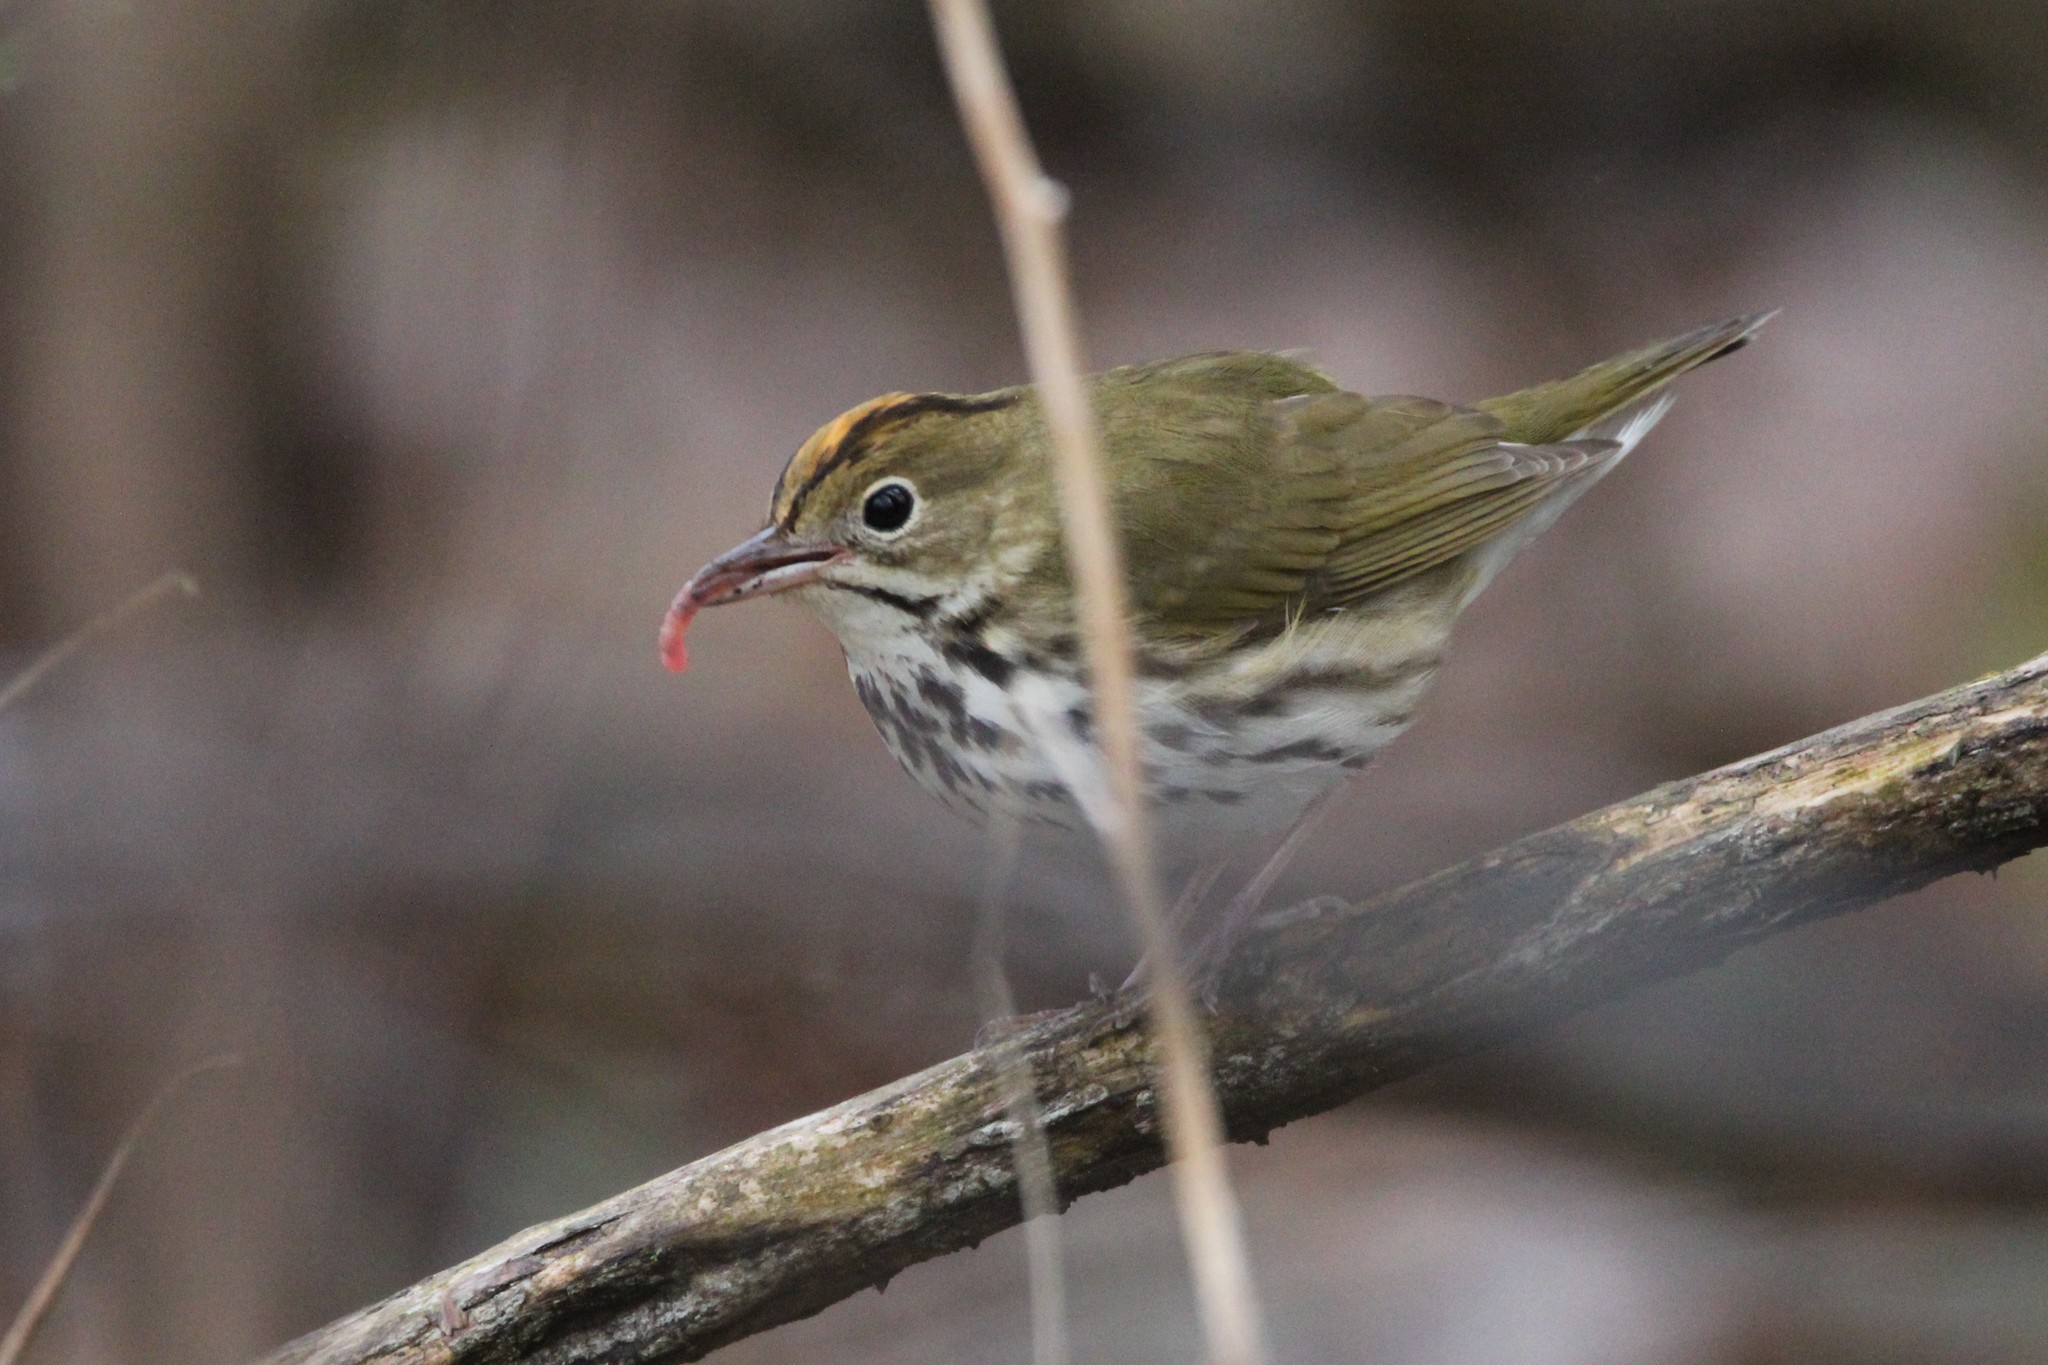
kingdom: Animalia
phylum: Chordata
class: Aves
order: Passeriformes
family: Parulidae
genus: Seiurus
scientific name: Seiurus aurocapilla
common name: Ovenbird
